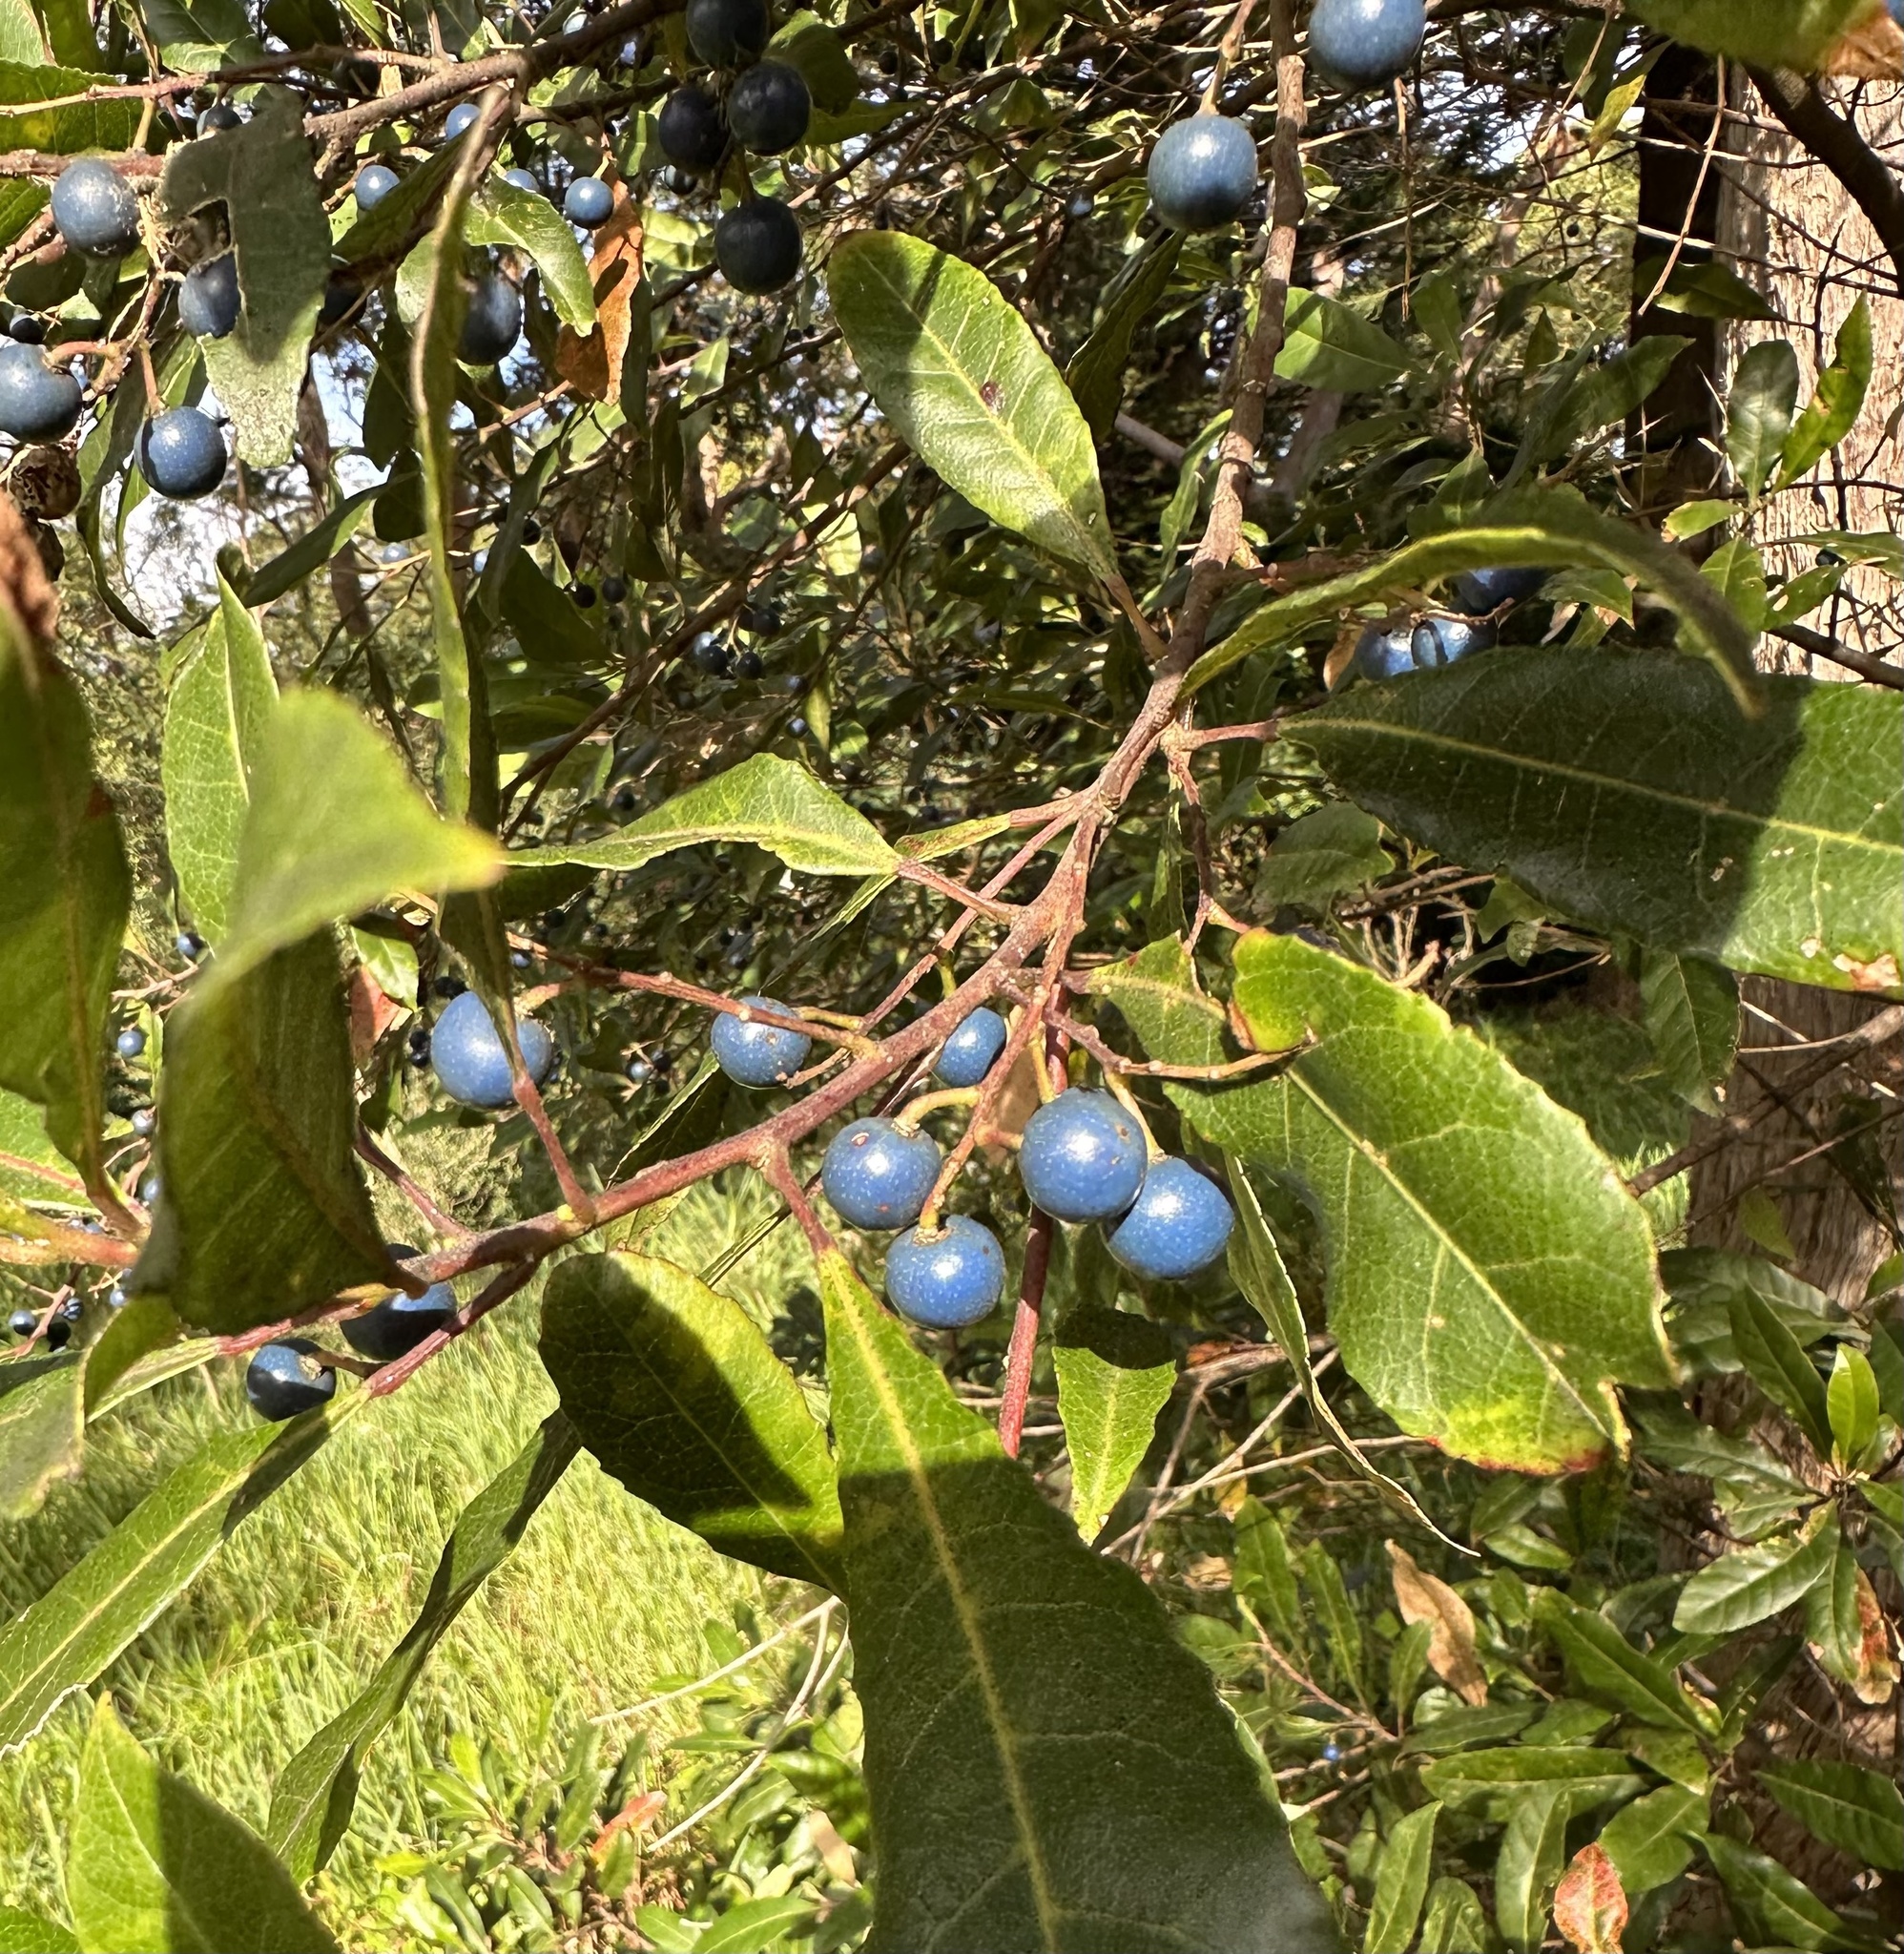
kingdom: Plantae
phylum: Tracheophyta
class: Magnoliopsida
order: Oxalidales
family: Elaeocarpaceae
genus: Elaeocarpus
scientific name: Elaeocarpus reticulatus
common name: Ash quandong
